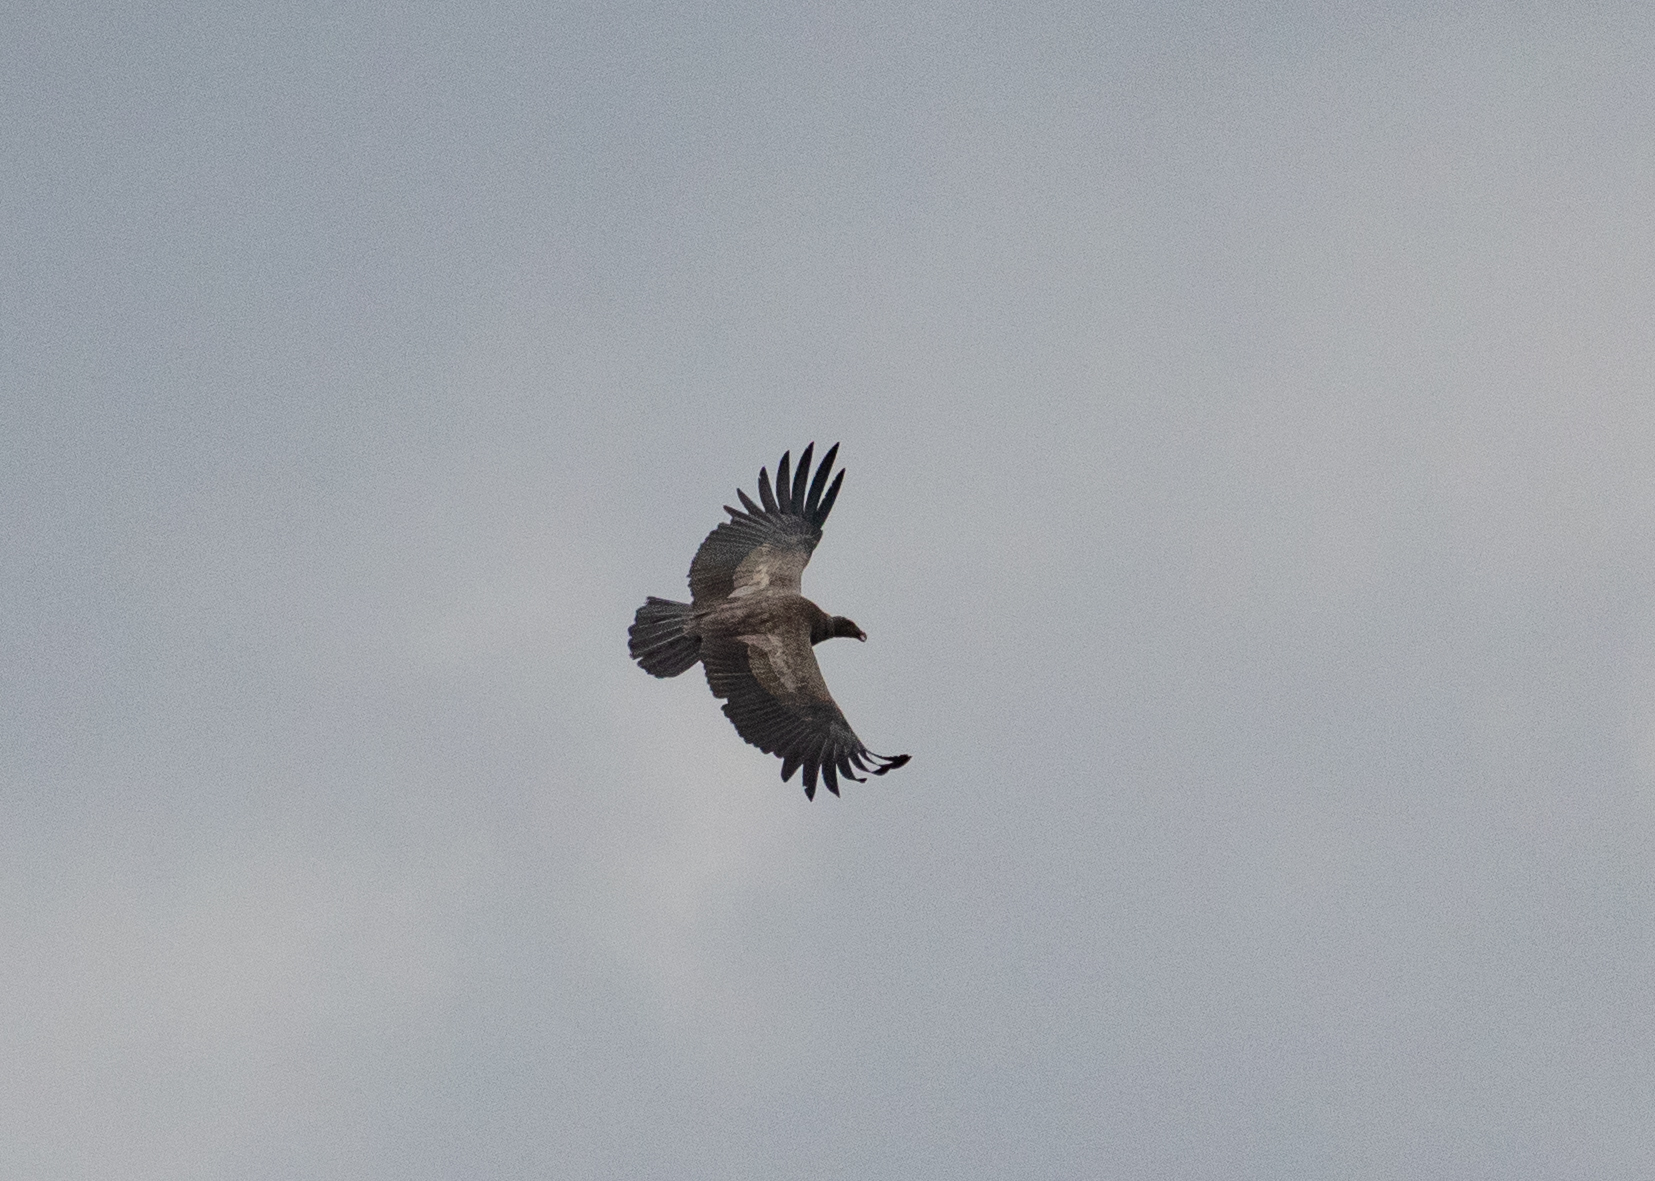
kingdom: Animalia
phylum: Chordata
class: Aves
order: Accipitriformes
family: Cathartidae
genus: Vultur
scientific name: Vultur gryphus
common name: Andean condor
